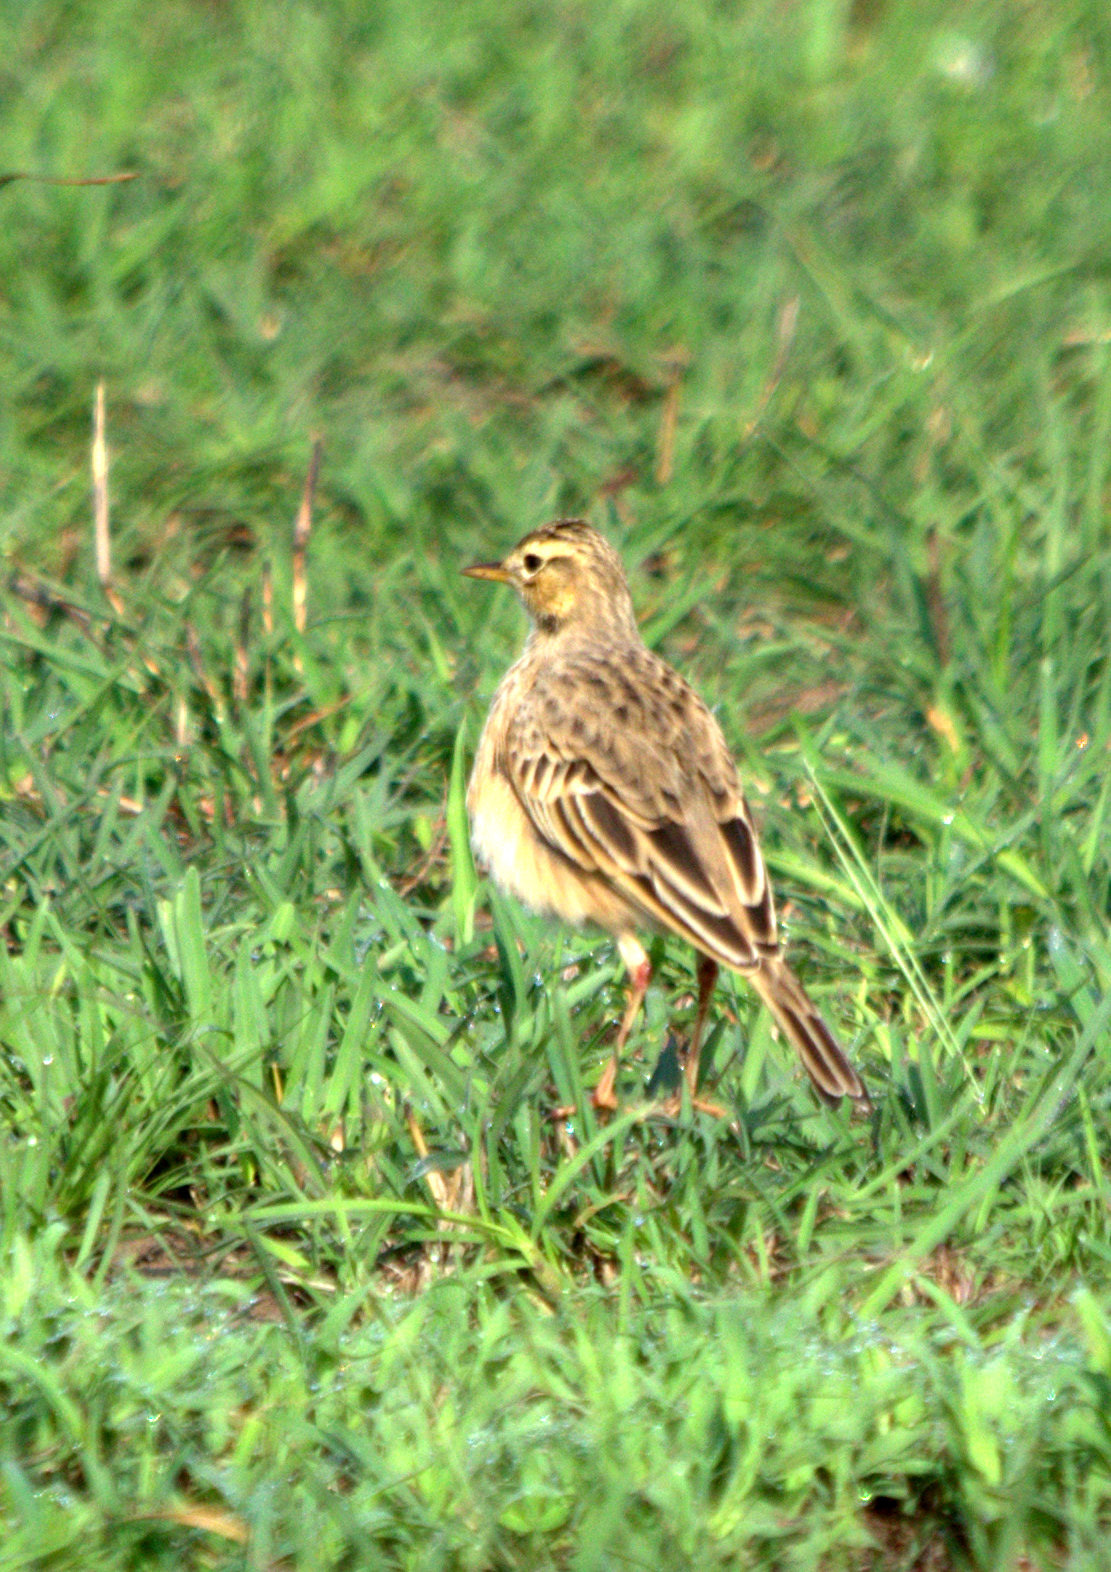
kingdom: Animalia
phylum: Chordata
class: Aves
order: Passeriformes
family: Motacillidae
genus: Anthus
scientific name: Anthus cinnamomeus
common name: African pipit
